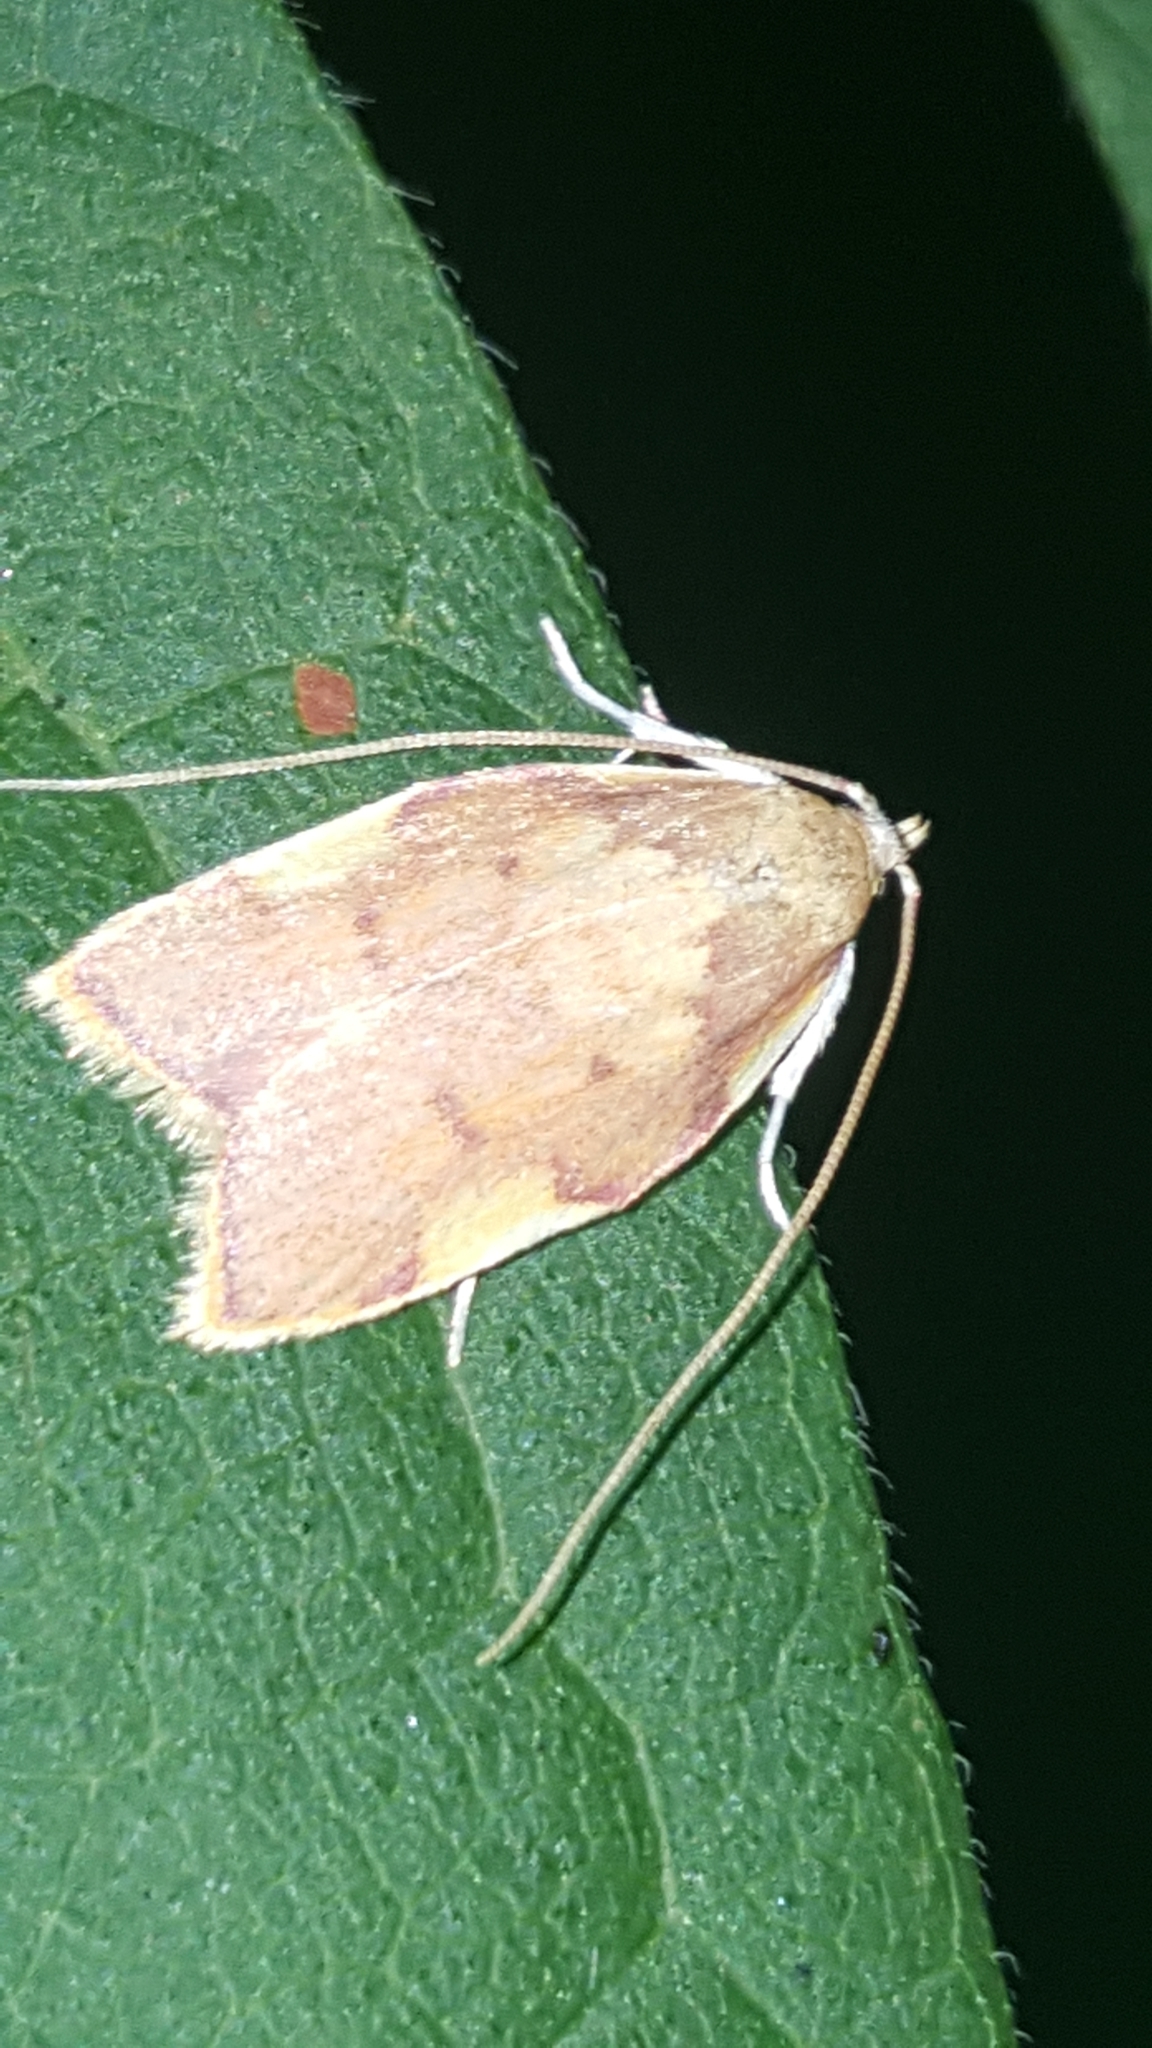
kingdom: Animalia
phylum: Arthropoda
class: Insecta
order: Lepidoptera
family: Peleopodidae
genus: Carcina
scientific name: Carcina quercana
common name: Moth
